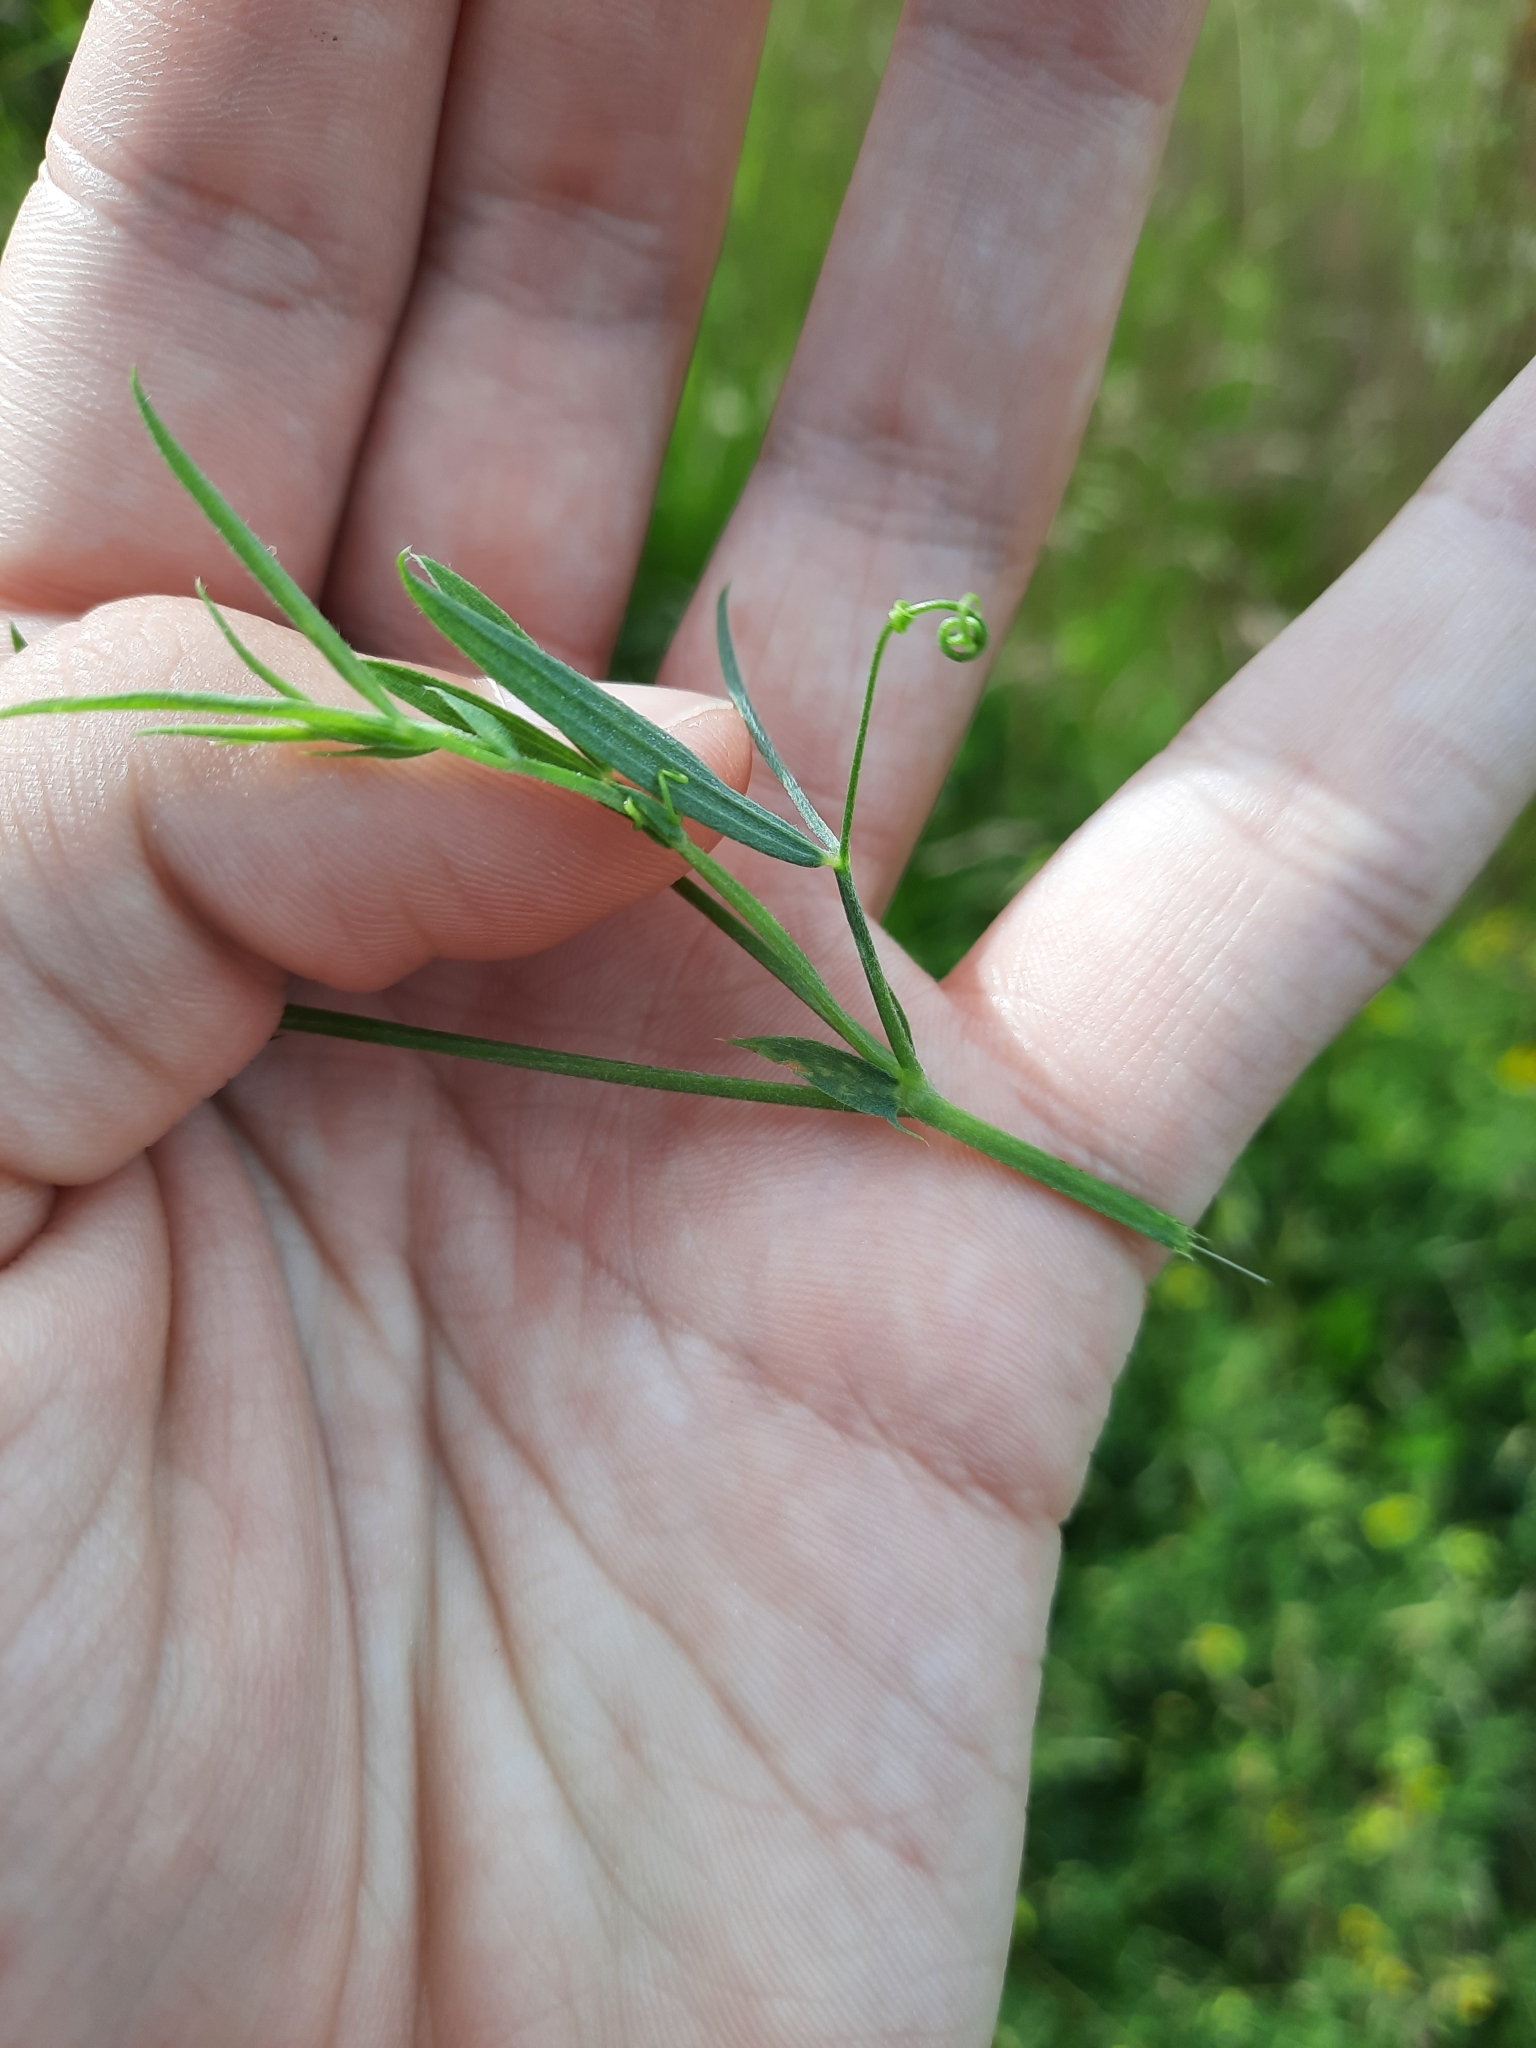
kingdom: Plantae
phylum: Tracheophyta
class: Magnoliopsida
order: Fabales
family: Fabaceae
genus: Lathyrus
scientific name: Lathyrus pratensis
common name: Meadow vetchling
